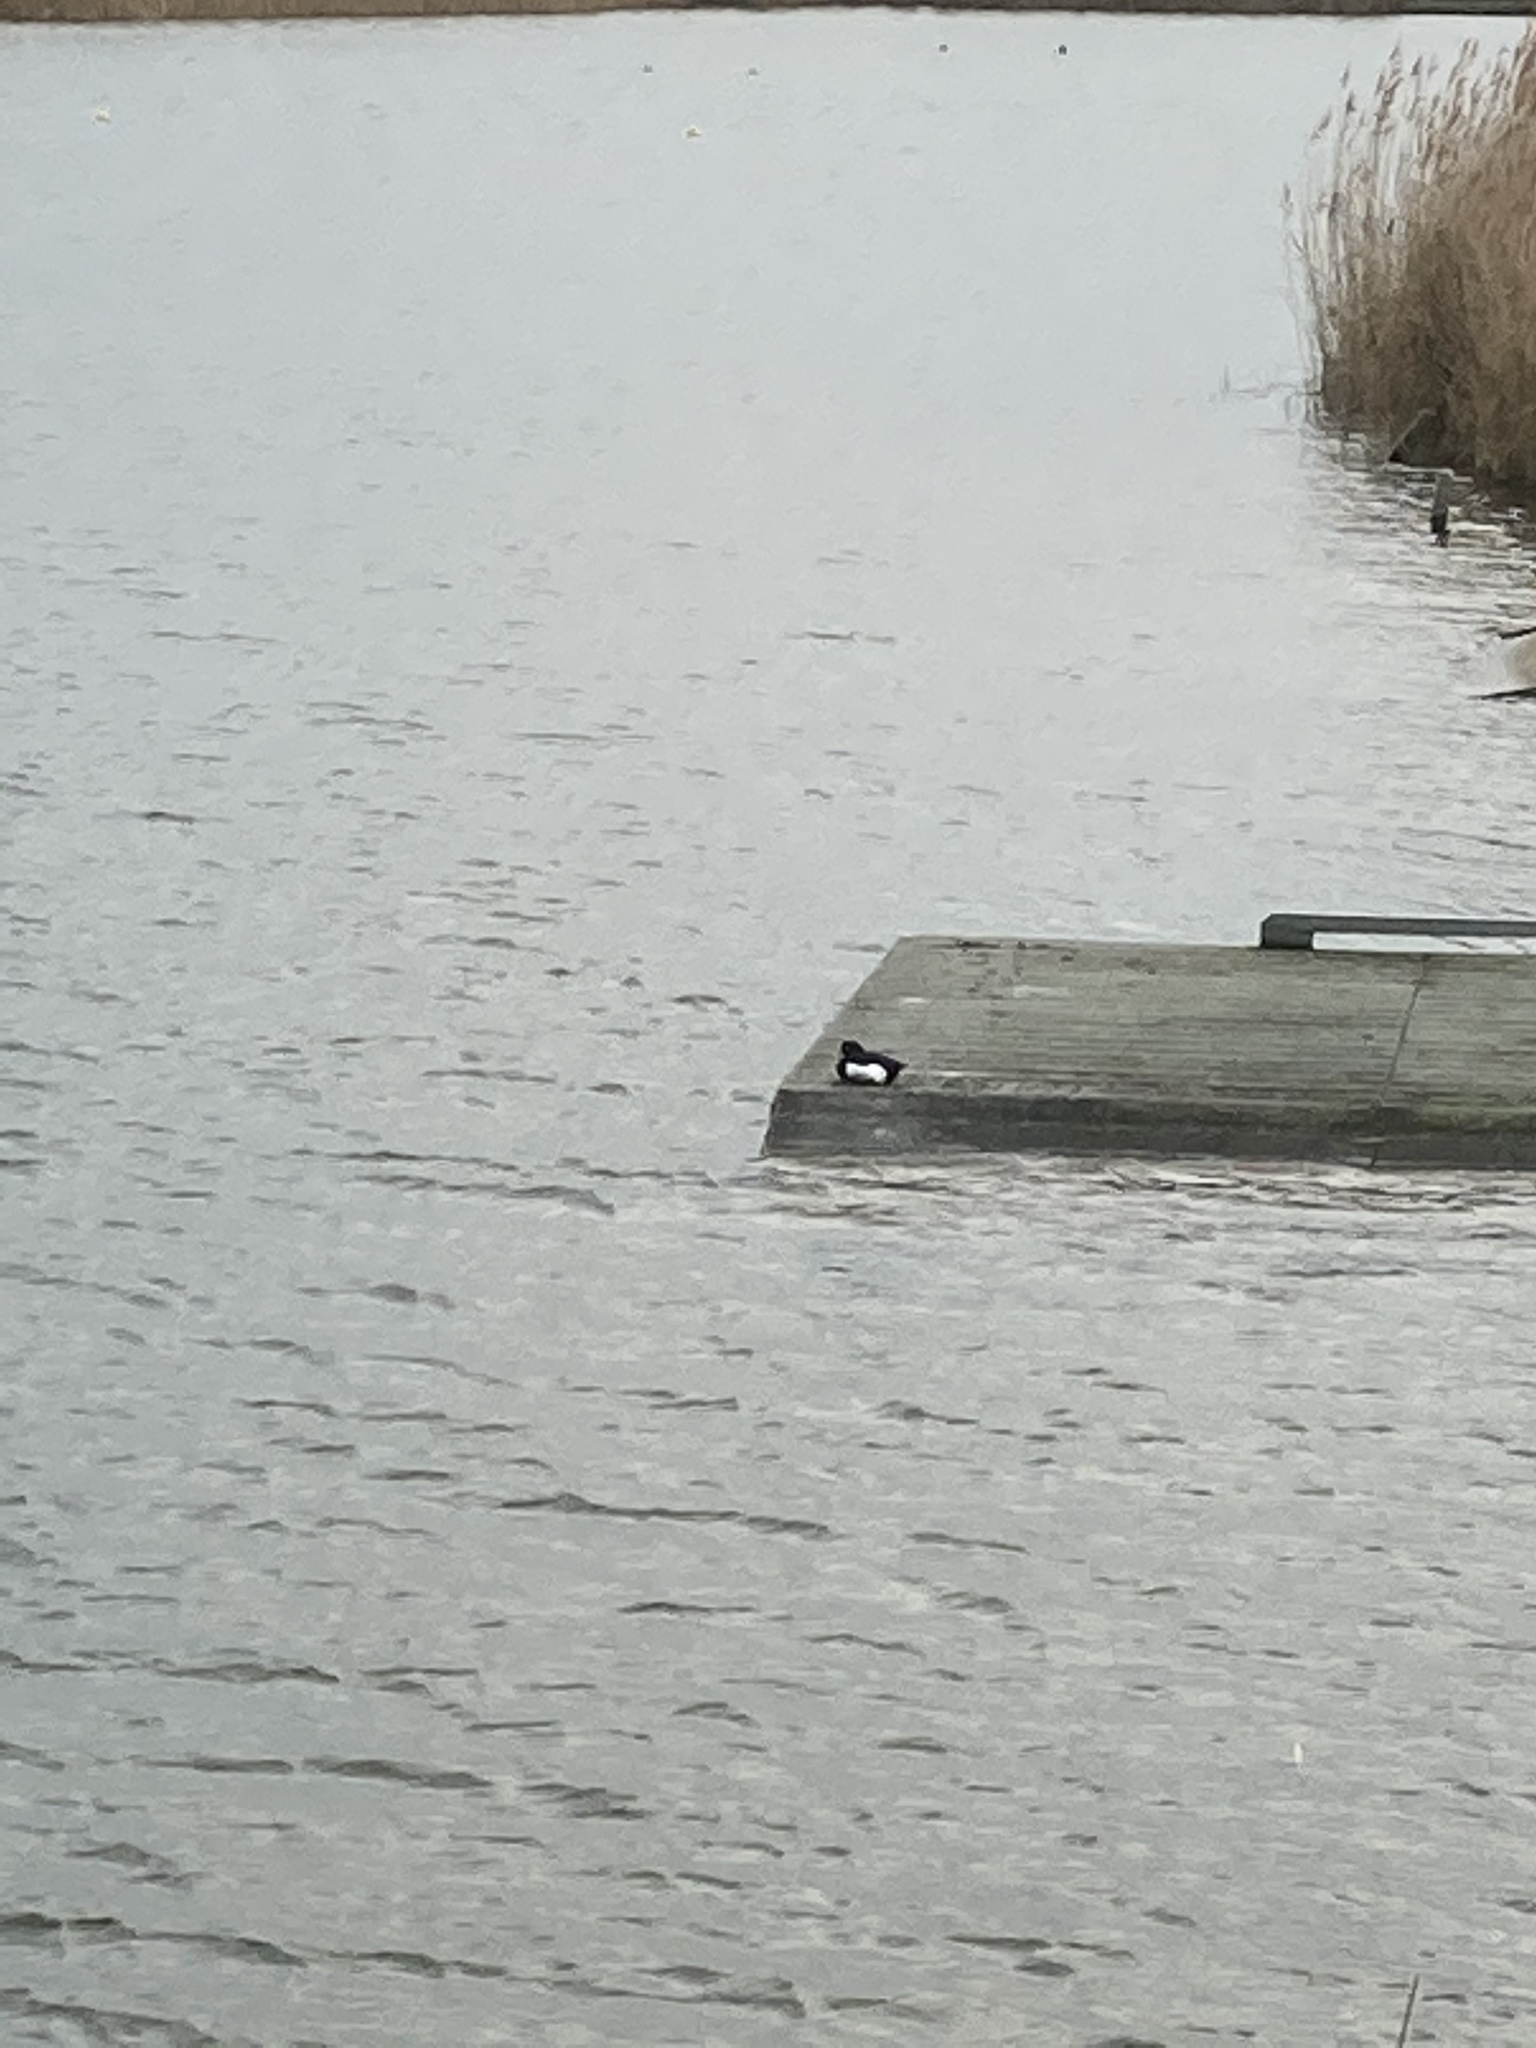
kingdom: Animalia
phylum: Chordata
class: Aves
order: Anseriformes
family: Anatidae
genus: Aythya
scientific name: Aythya fuligula
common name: Tufted duck
